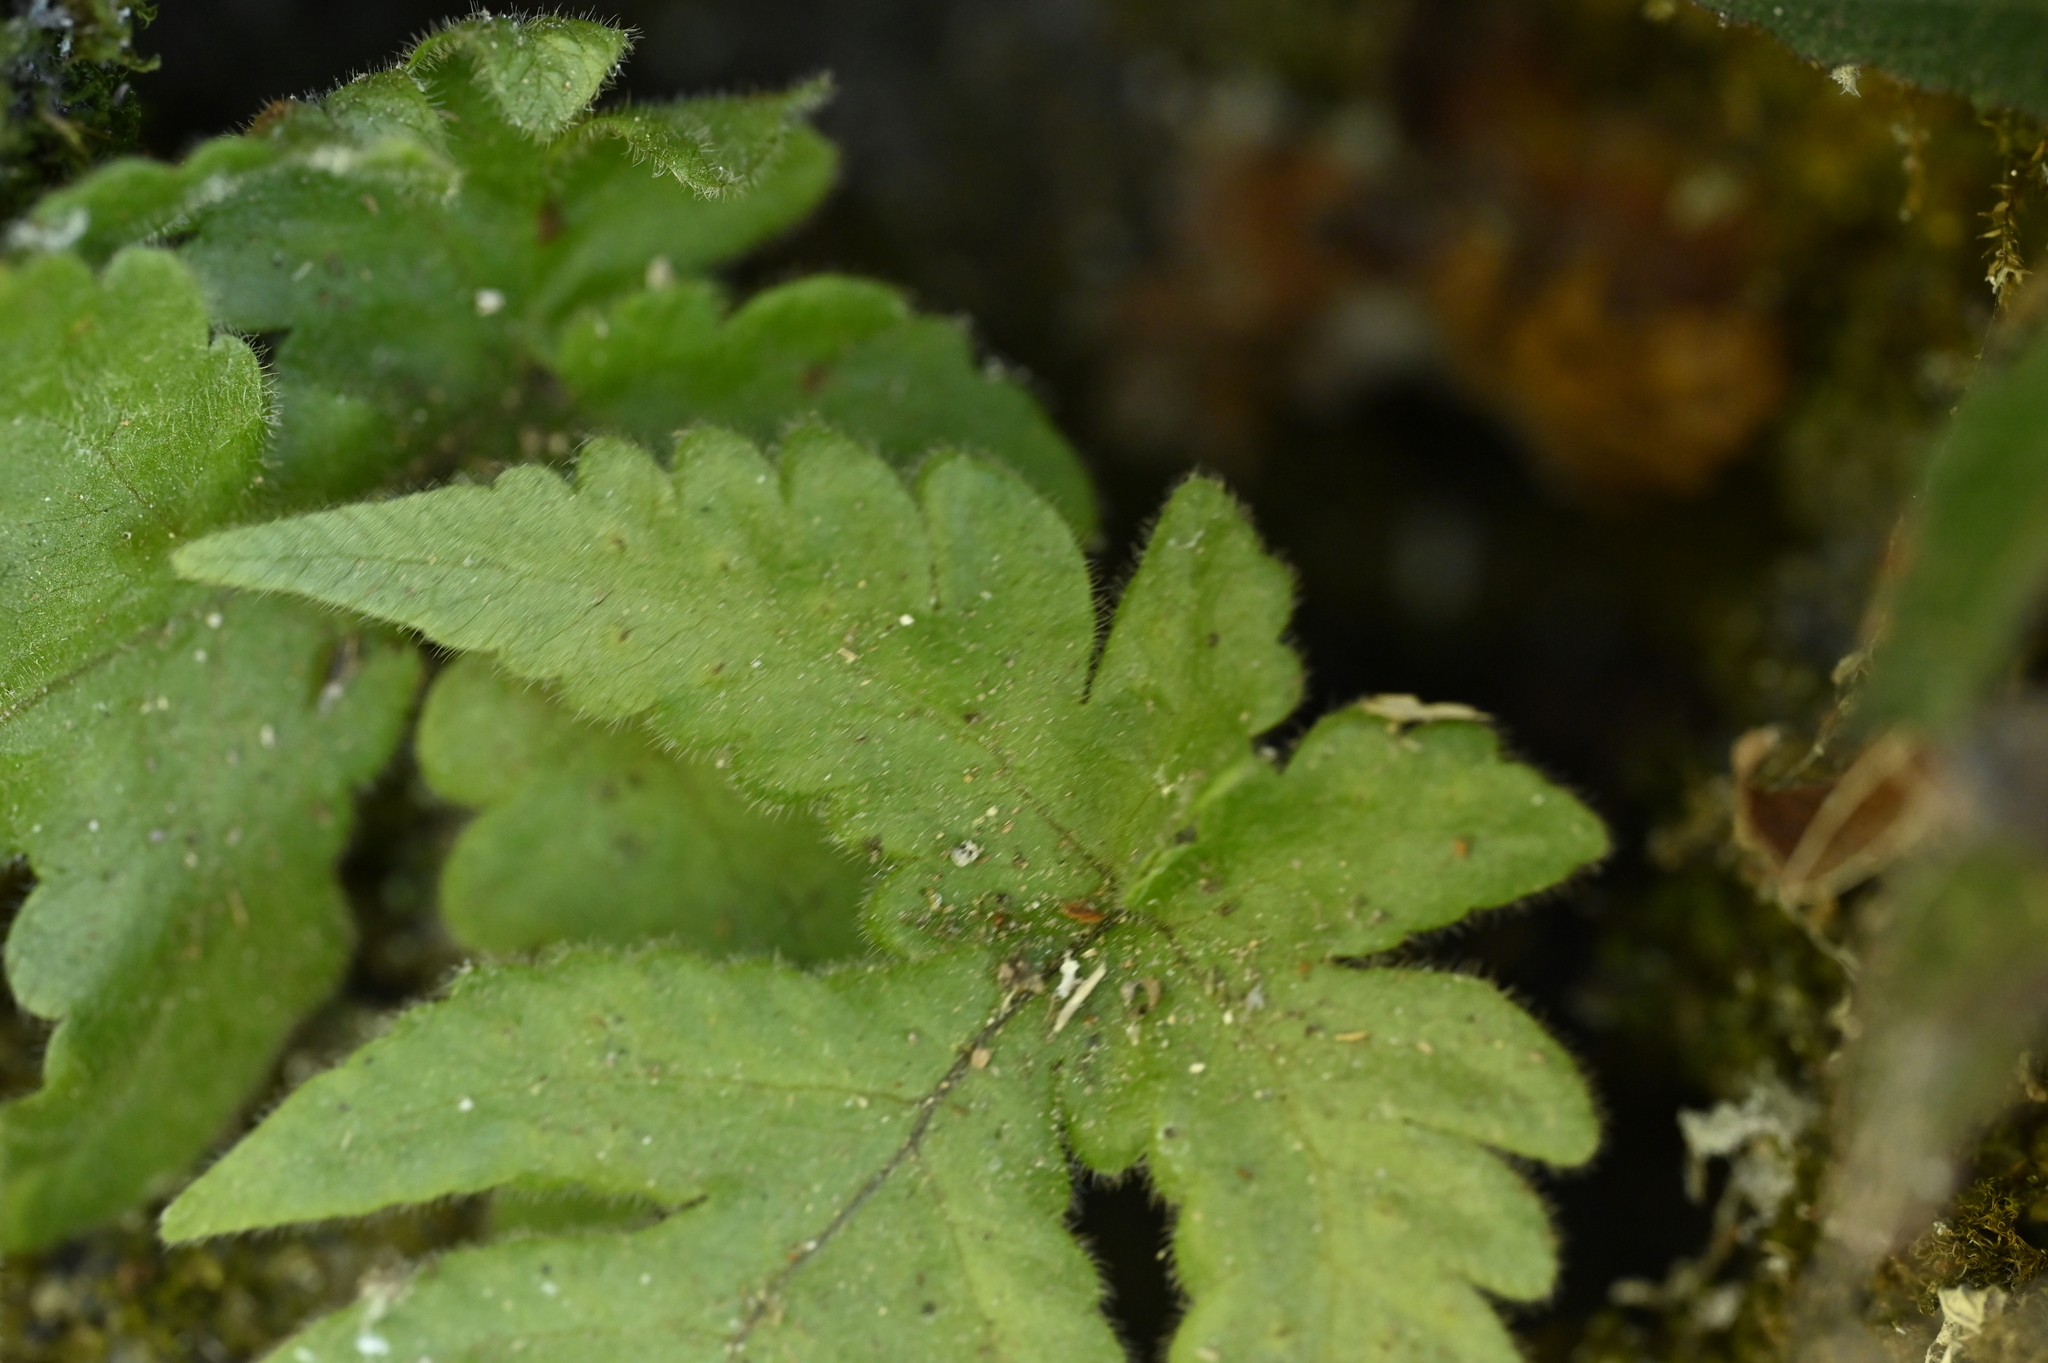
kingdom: Plantae
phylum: Tracheophyta
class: Polypodiopsida
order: Polypodiales
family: Tectariaceae
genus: Tectaria
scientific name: Tectaria coadunata
